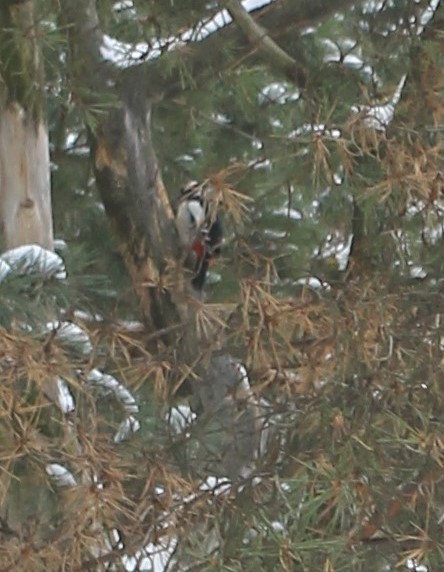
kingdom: Animalia
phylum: Chordata
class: Aves
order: Piciformes
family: Picidae
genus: Dendrocopos
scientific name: Dendrocopos major
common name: Great spotted woodpecker
